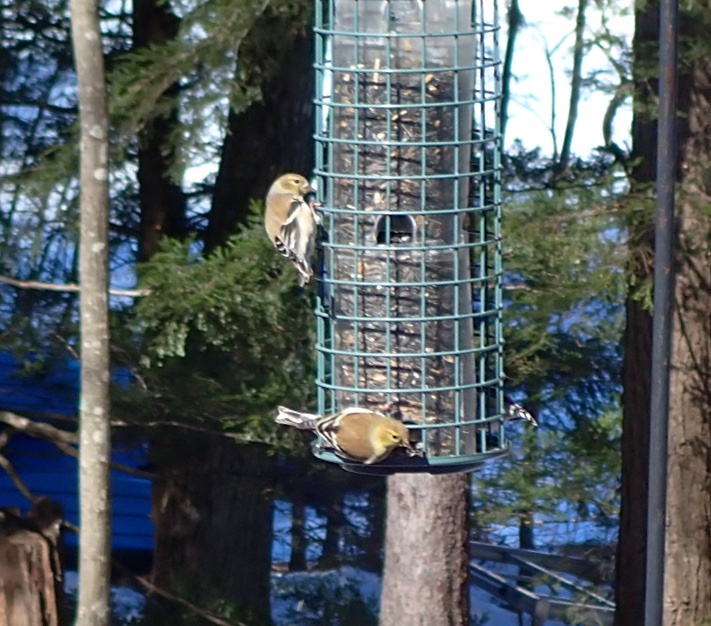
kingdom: Animalia
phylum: Chordata
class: Aves
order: Passeriformes
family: Fringillidae
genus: Spinus
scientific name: Spinus tristis
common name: American goldfinch
